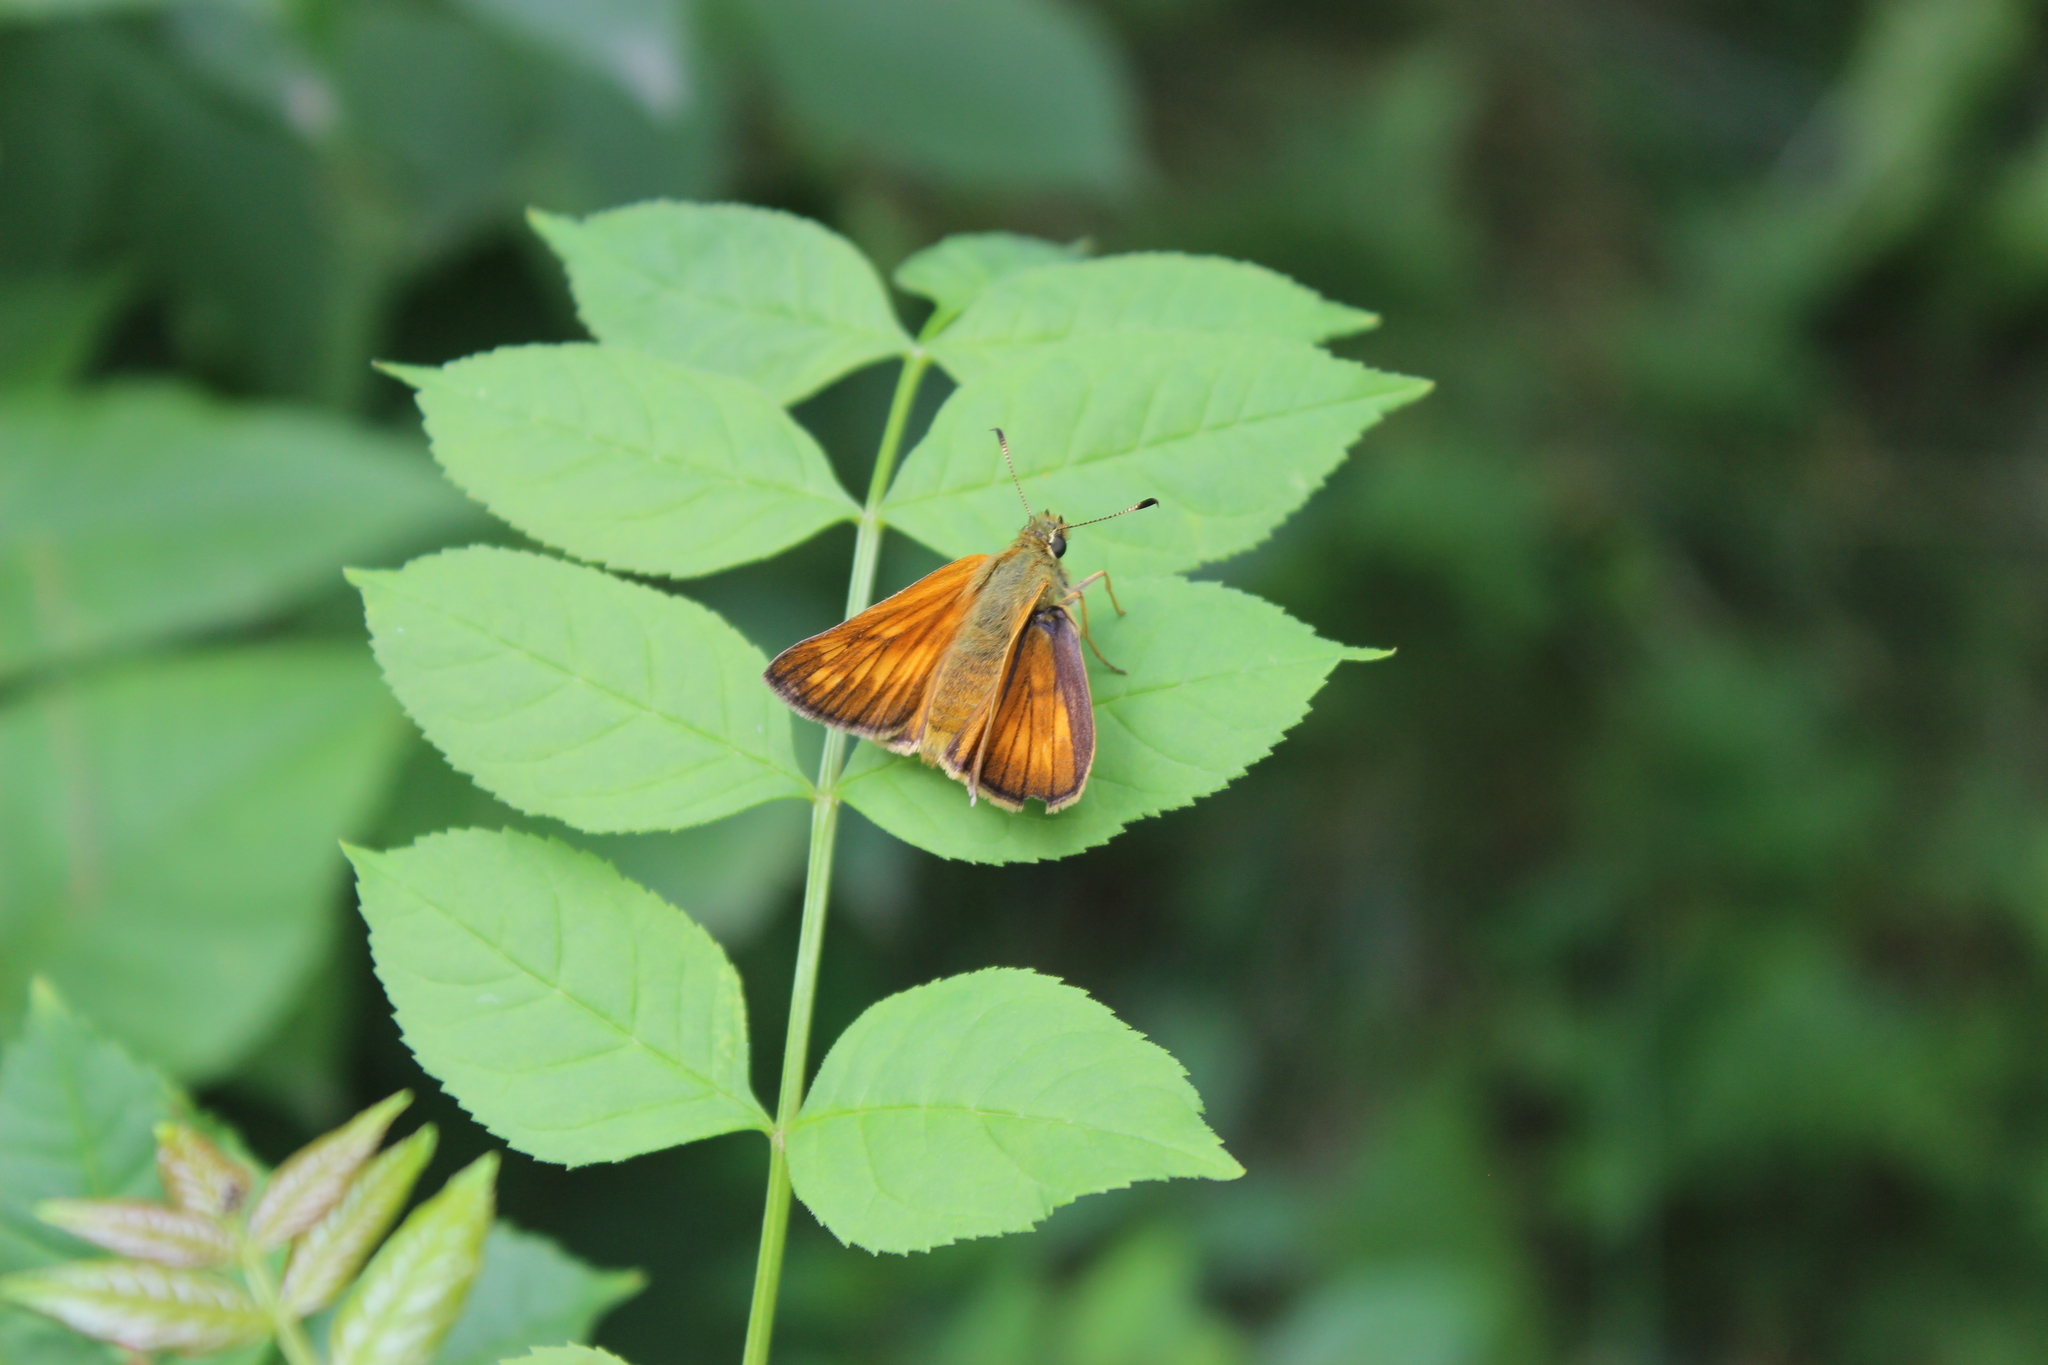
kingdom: Animalia
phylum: Arthropoda
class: Insecta
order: Lepidoptera
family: Hesperiidae
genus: Ochlodes
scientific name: Ochlodes venata
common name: Large skipper
